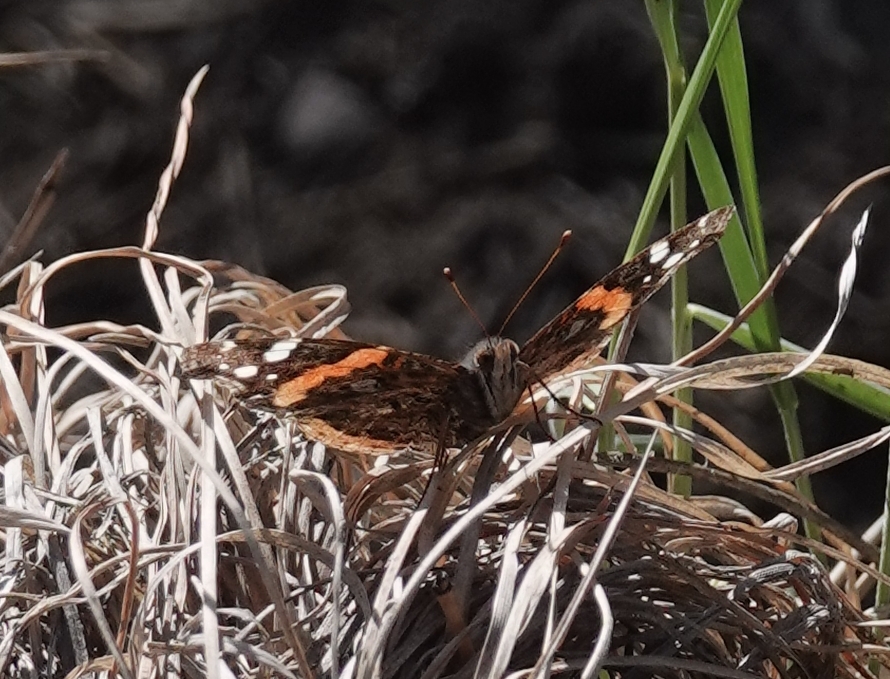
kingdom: Animalia
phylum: Arthropoda
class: Insecta
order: Lepidoptera
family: Nymphalidae
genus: Vanessa
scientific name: Vanessa atalanta
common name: Red admiral
